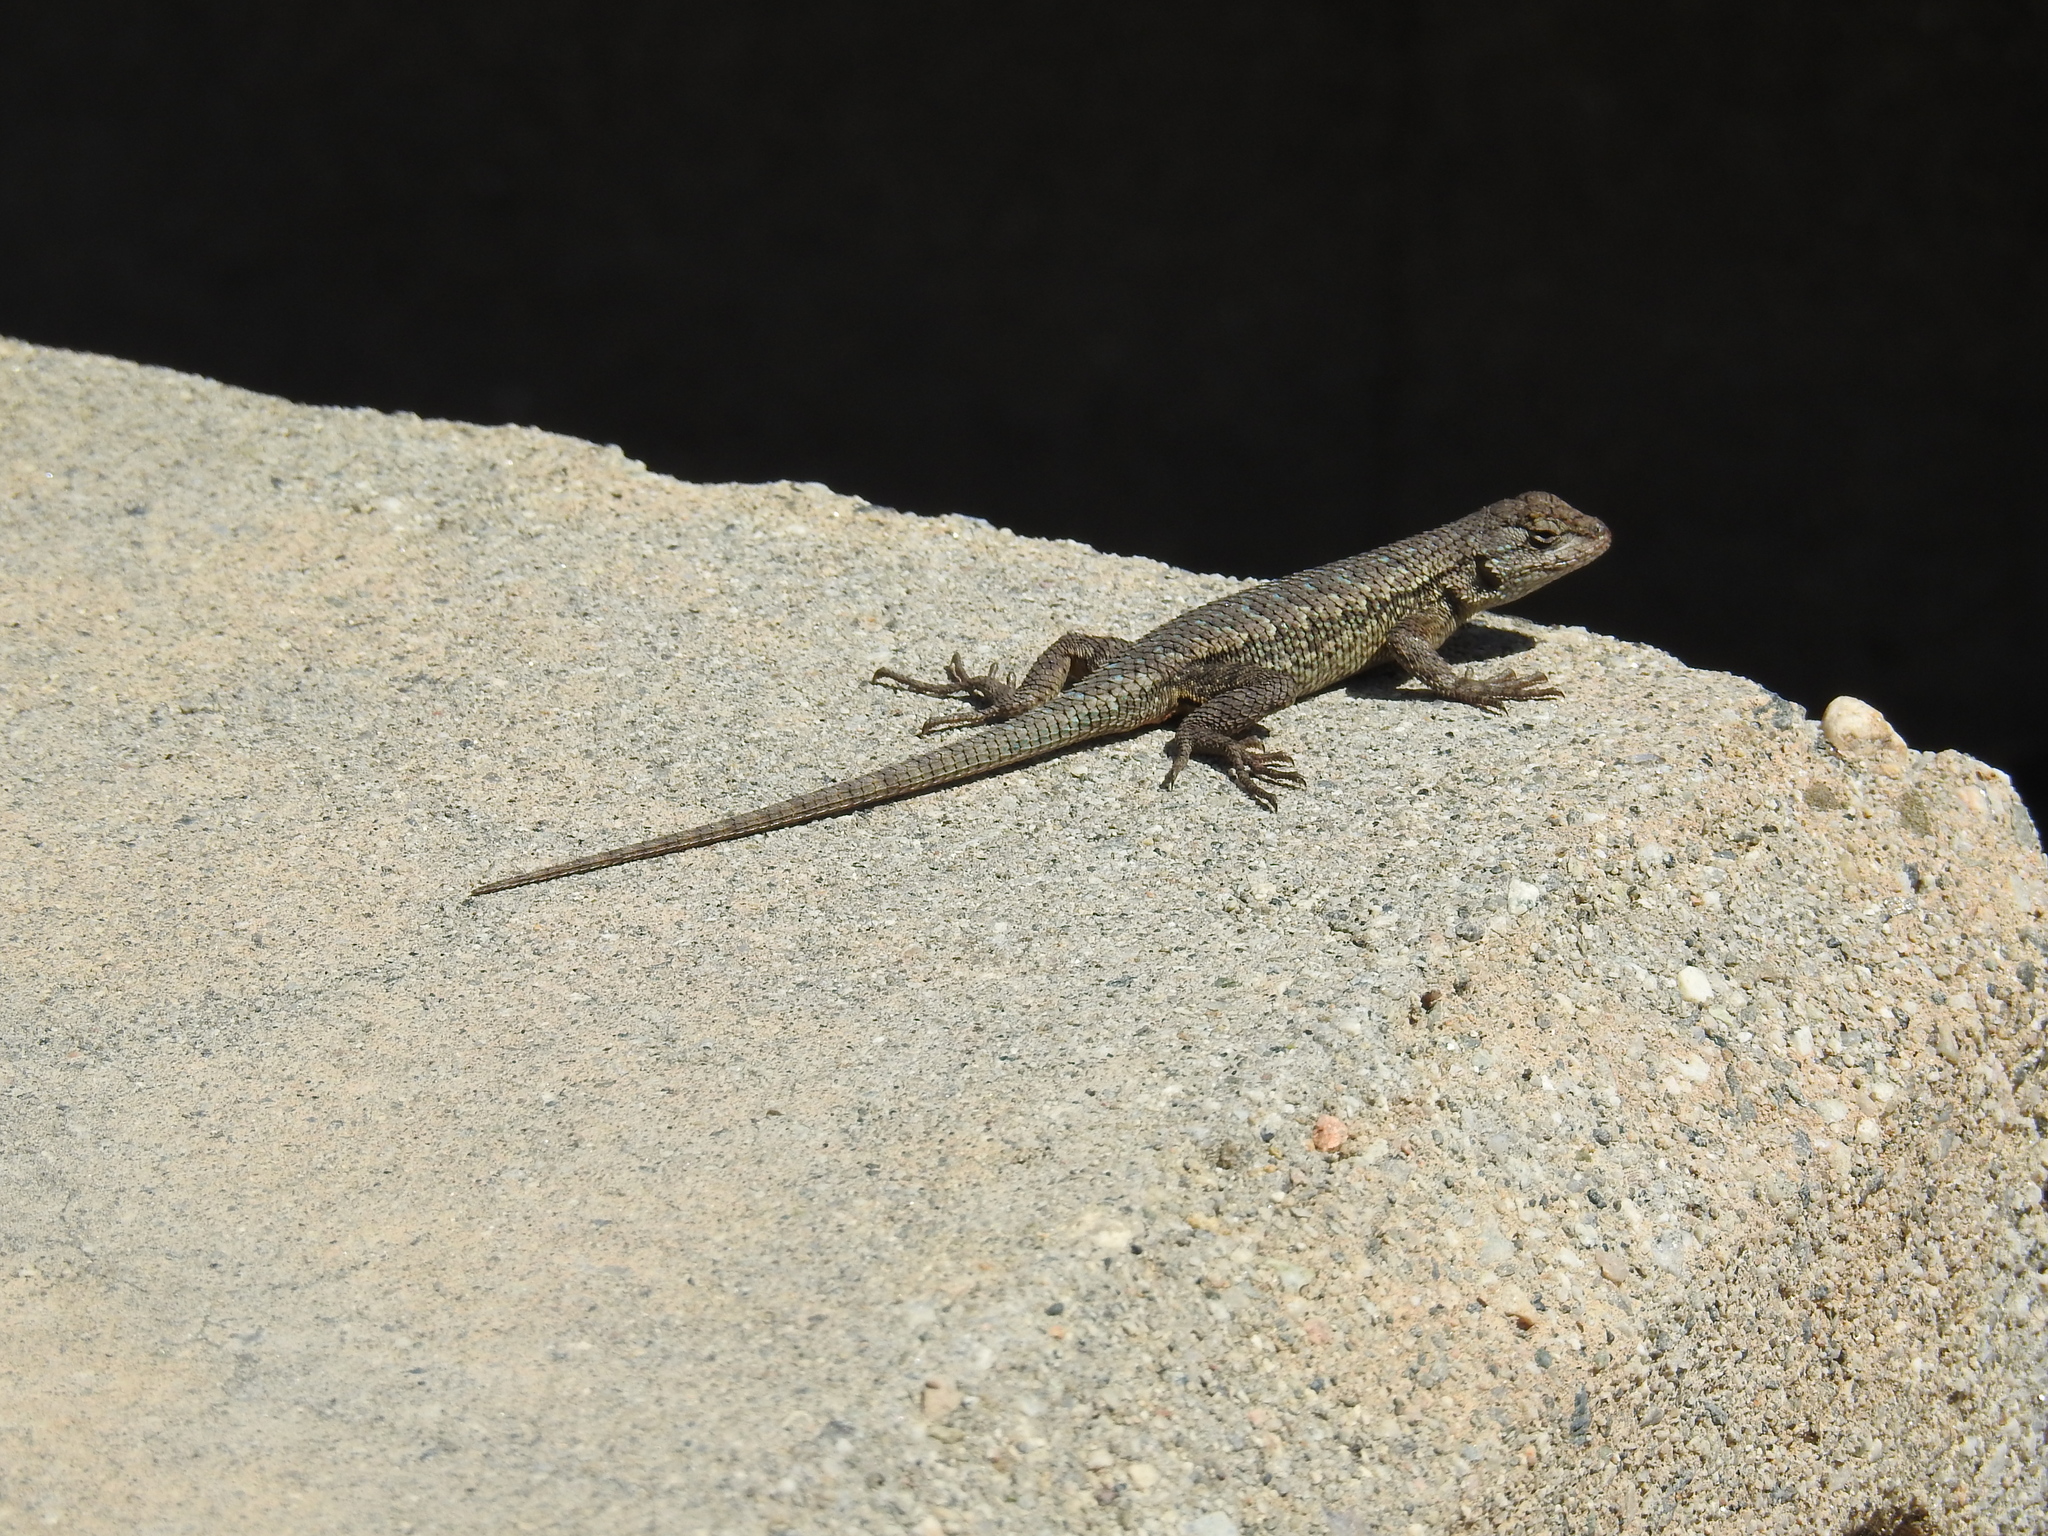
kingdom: Animalia
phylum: Chordata
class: Squamata
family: Phrynosomatidae
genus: Sceloporus
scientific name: Sceloporus occidentalis
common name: Western fence lizard
